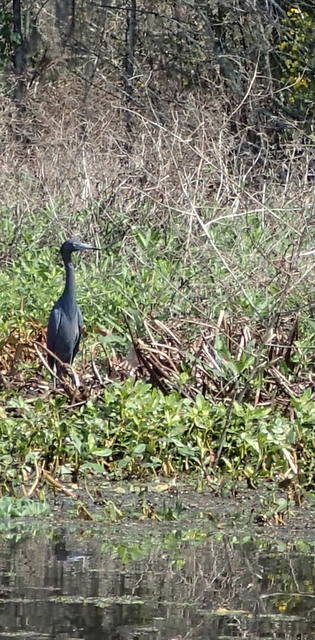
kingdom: Animalia
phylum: Chordata
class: Aves
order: Pelecaniformes
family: Ardeidae
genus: Egretta
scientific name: Egretta caerulea
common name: Little blue heron
